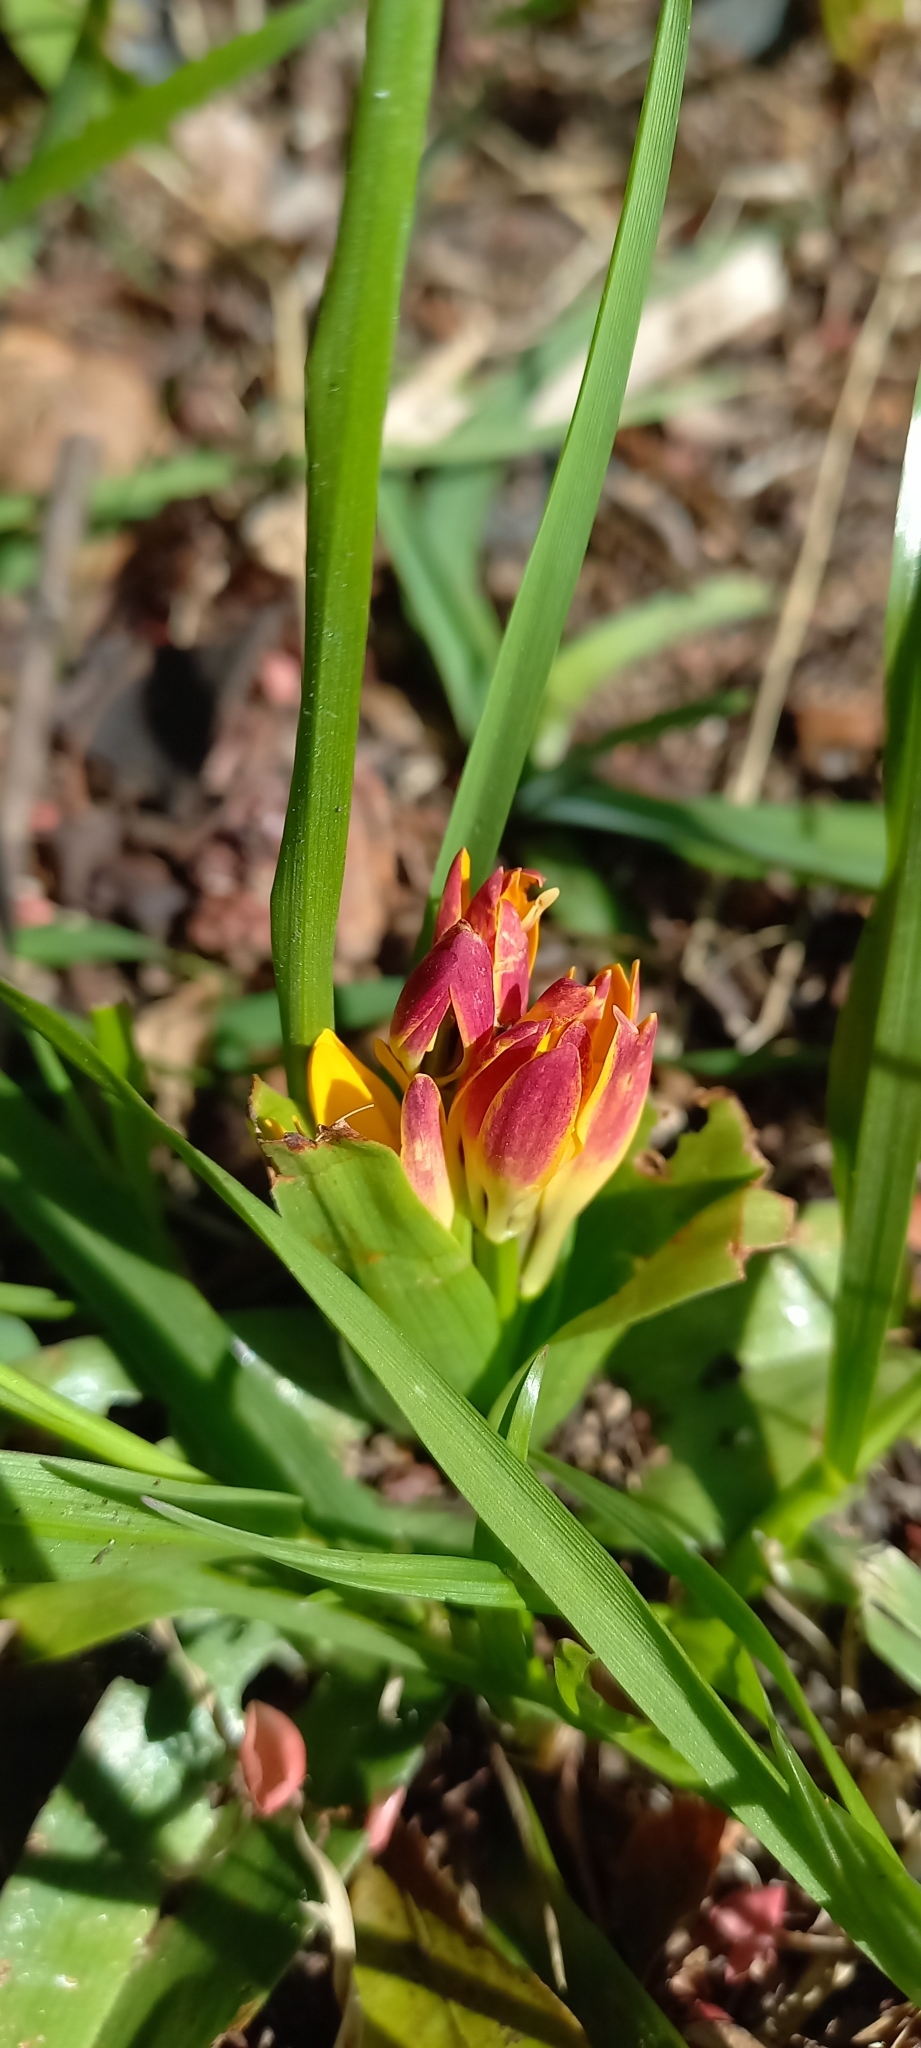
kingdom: Plantae
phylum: Tracheophyta
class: Liliopsida
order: Liliales
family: Colchicaceae
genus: Baeometra
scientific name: Baeometra uniflora
